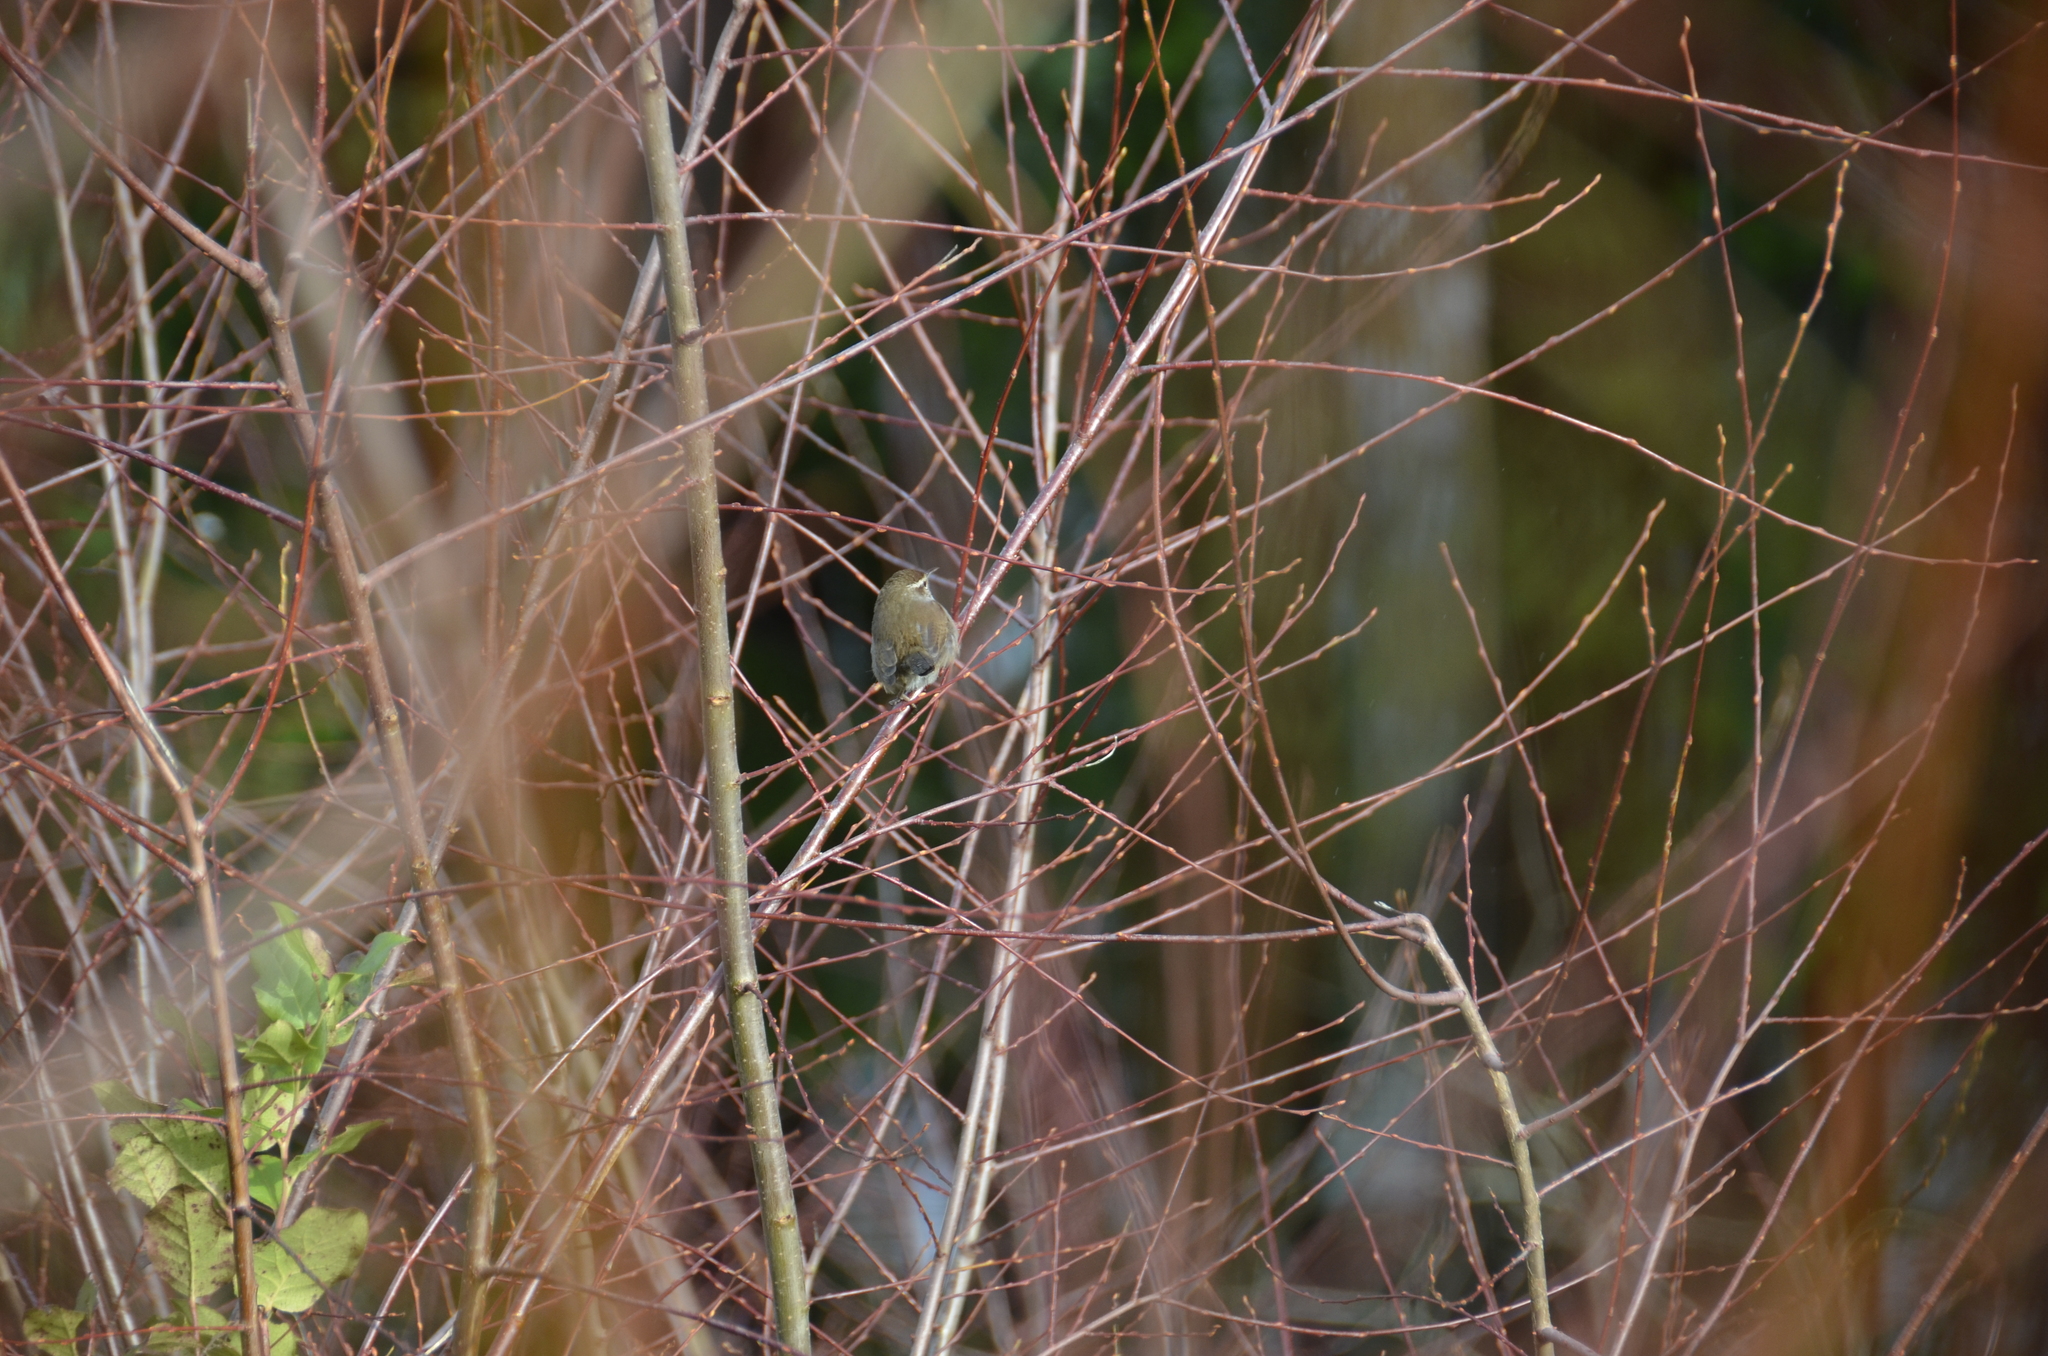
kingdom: Animalia
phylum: Chordata
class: Aves
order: Passeriformes
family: Troglodytidae
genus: Thryomanes
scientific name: Thryomanes bewickii
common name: Bewick's wren
